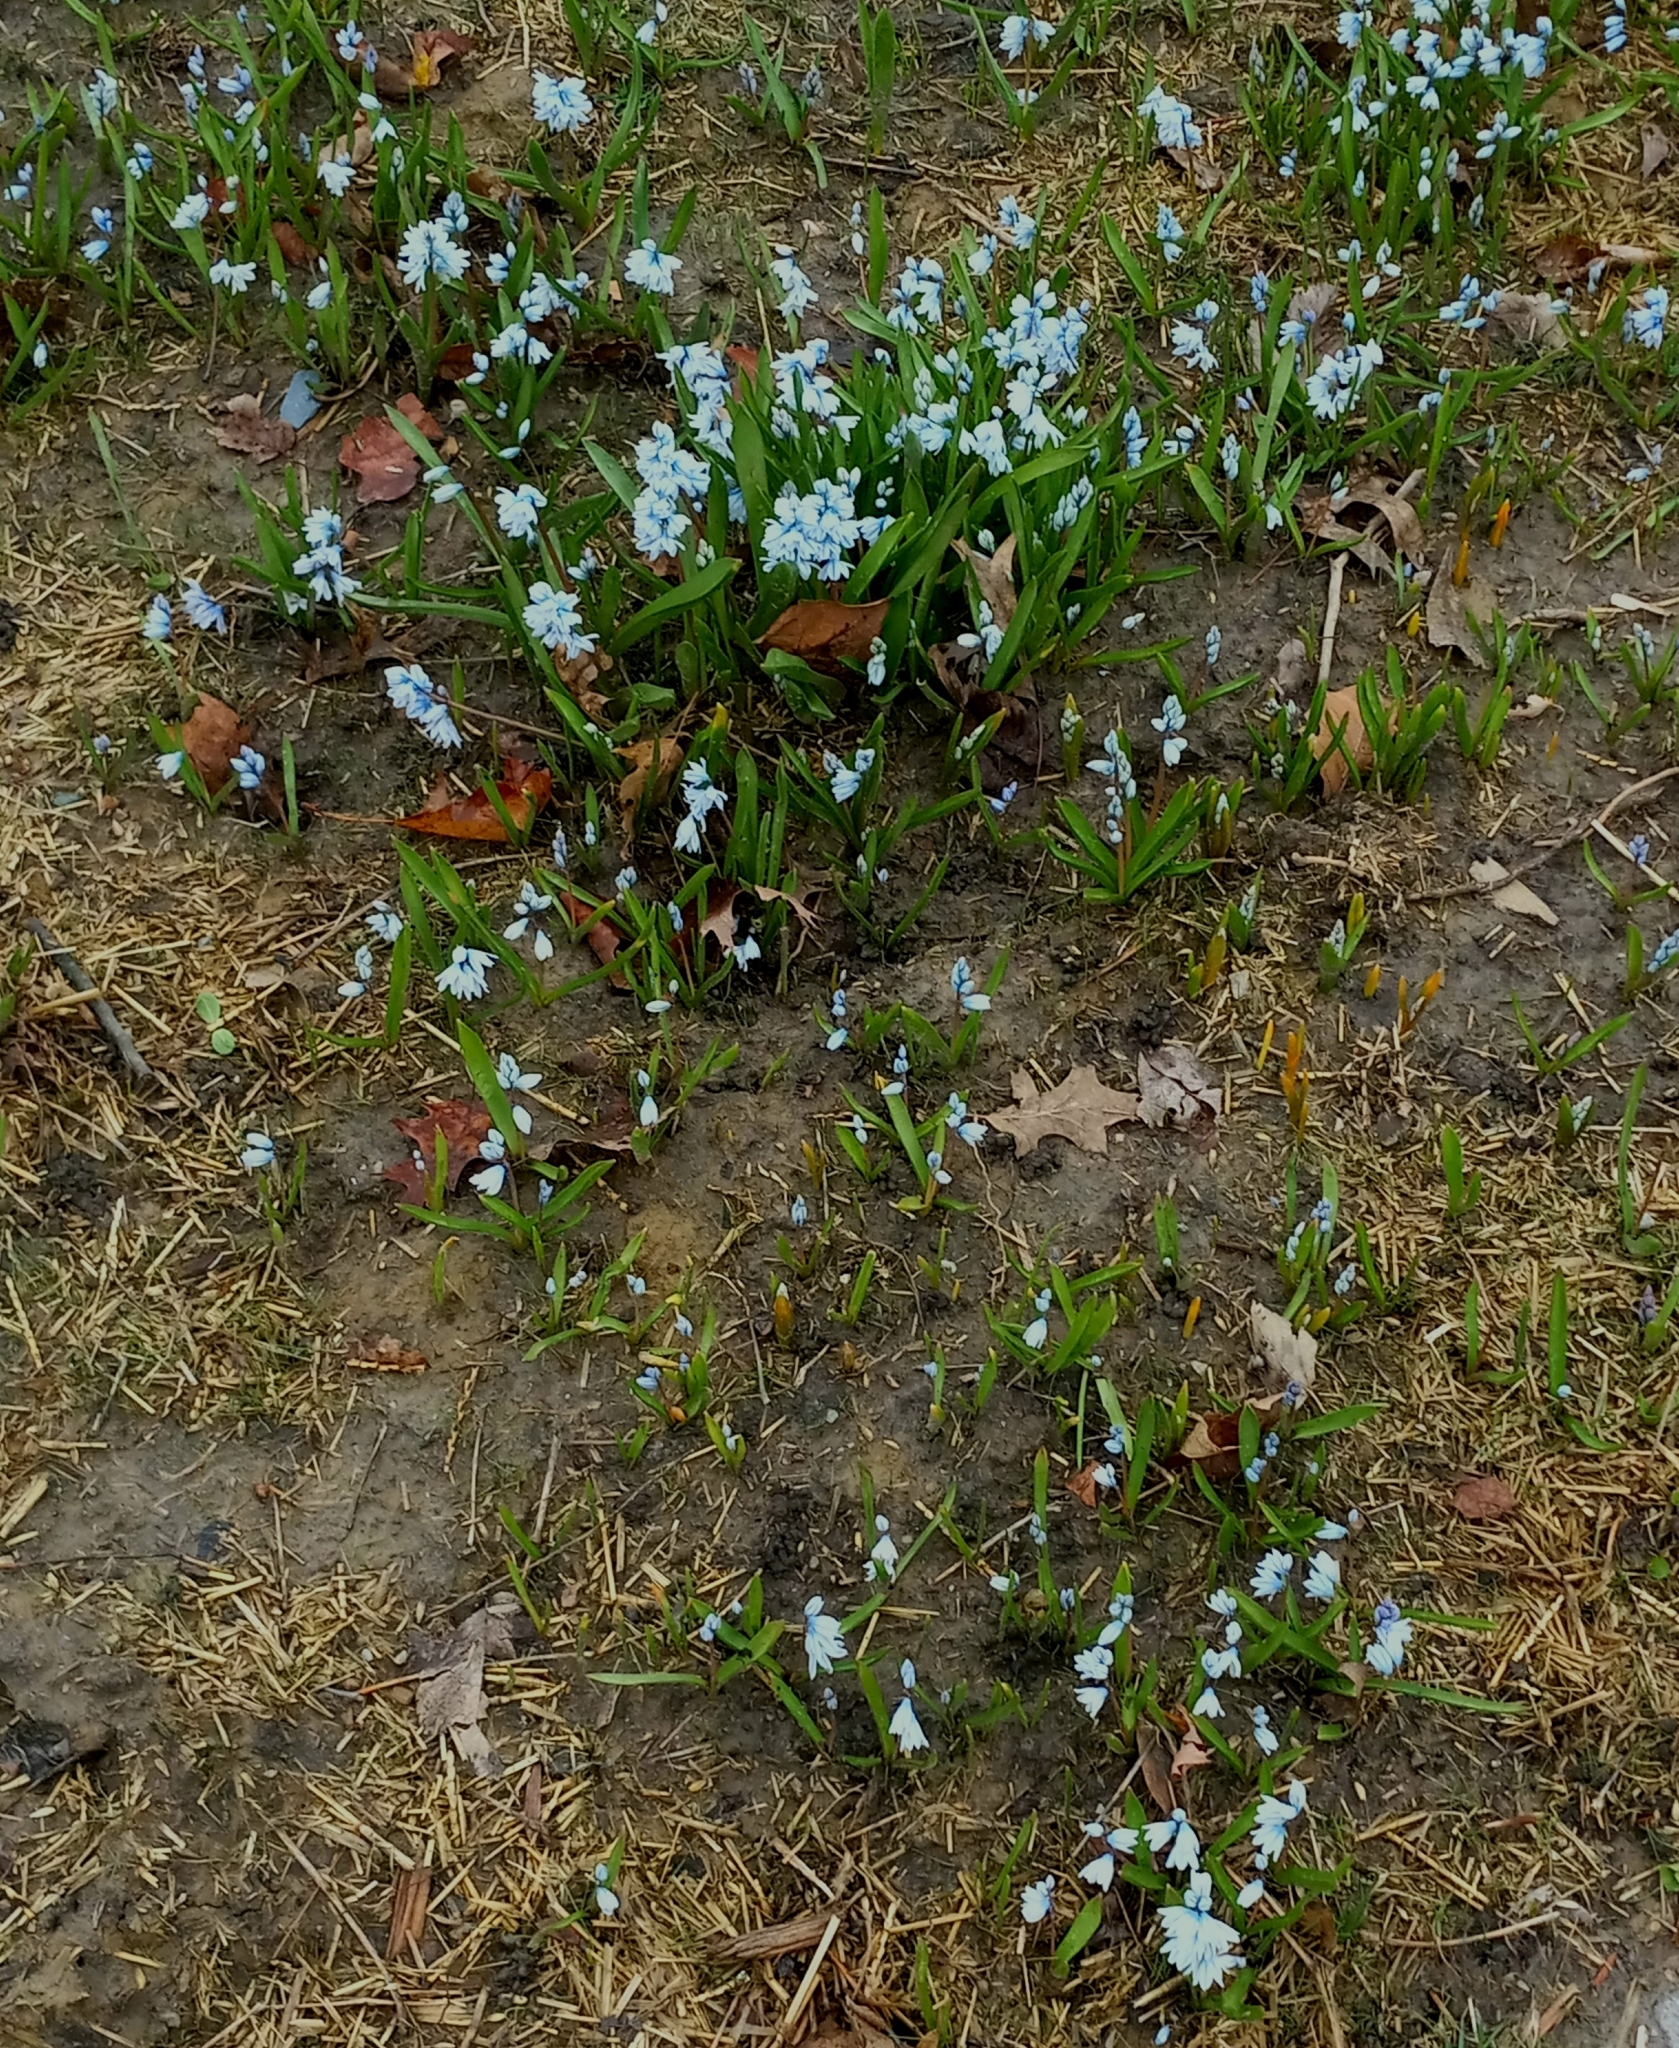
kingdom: Plantae
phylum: Tracheophyta
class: Liliopsida
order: Asparagales
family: Asparagaceae
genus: Puschkinia
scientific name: Puschkinia scilloides
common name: Striped squill
